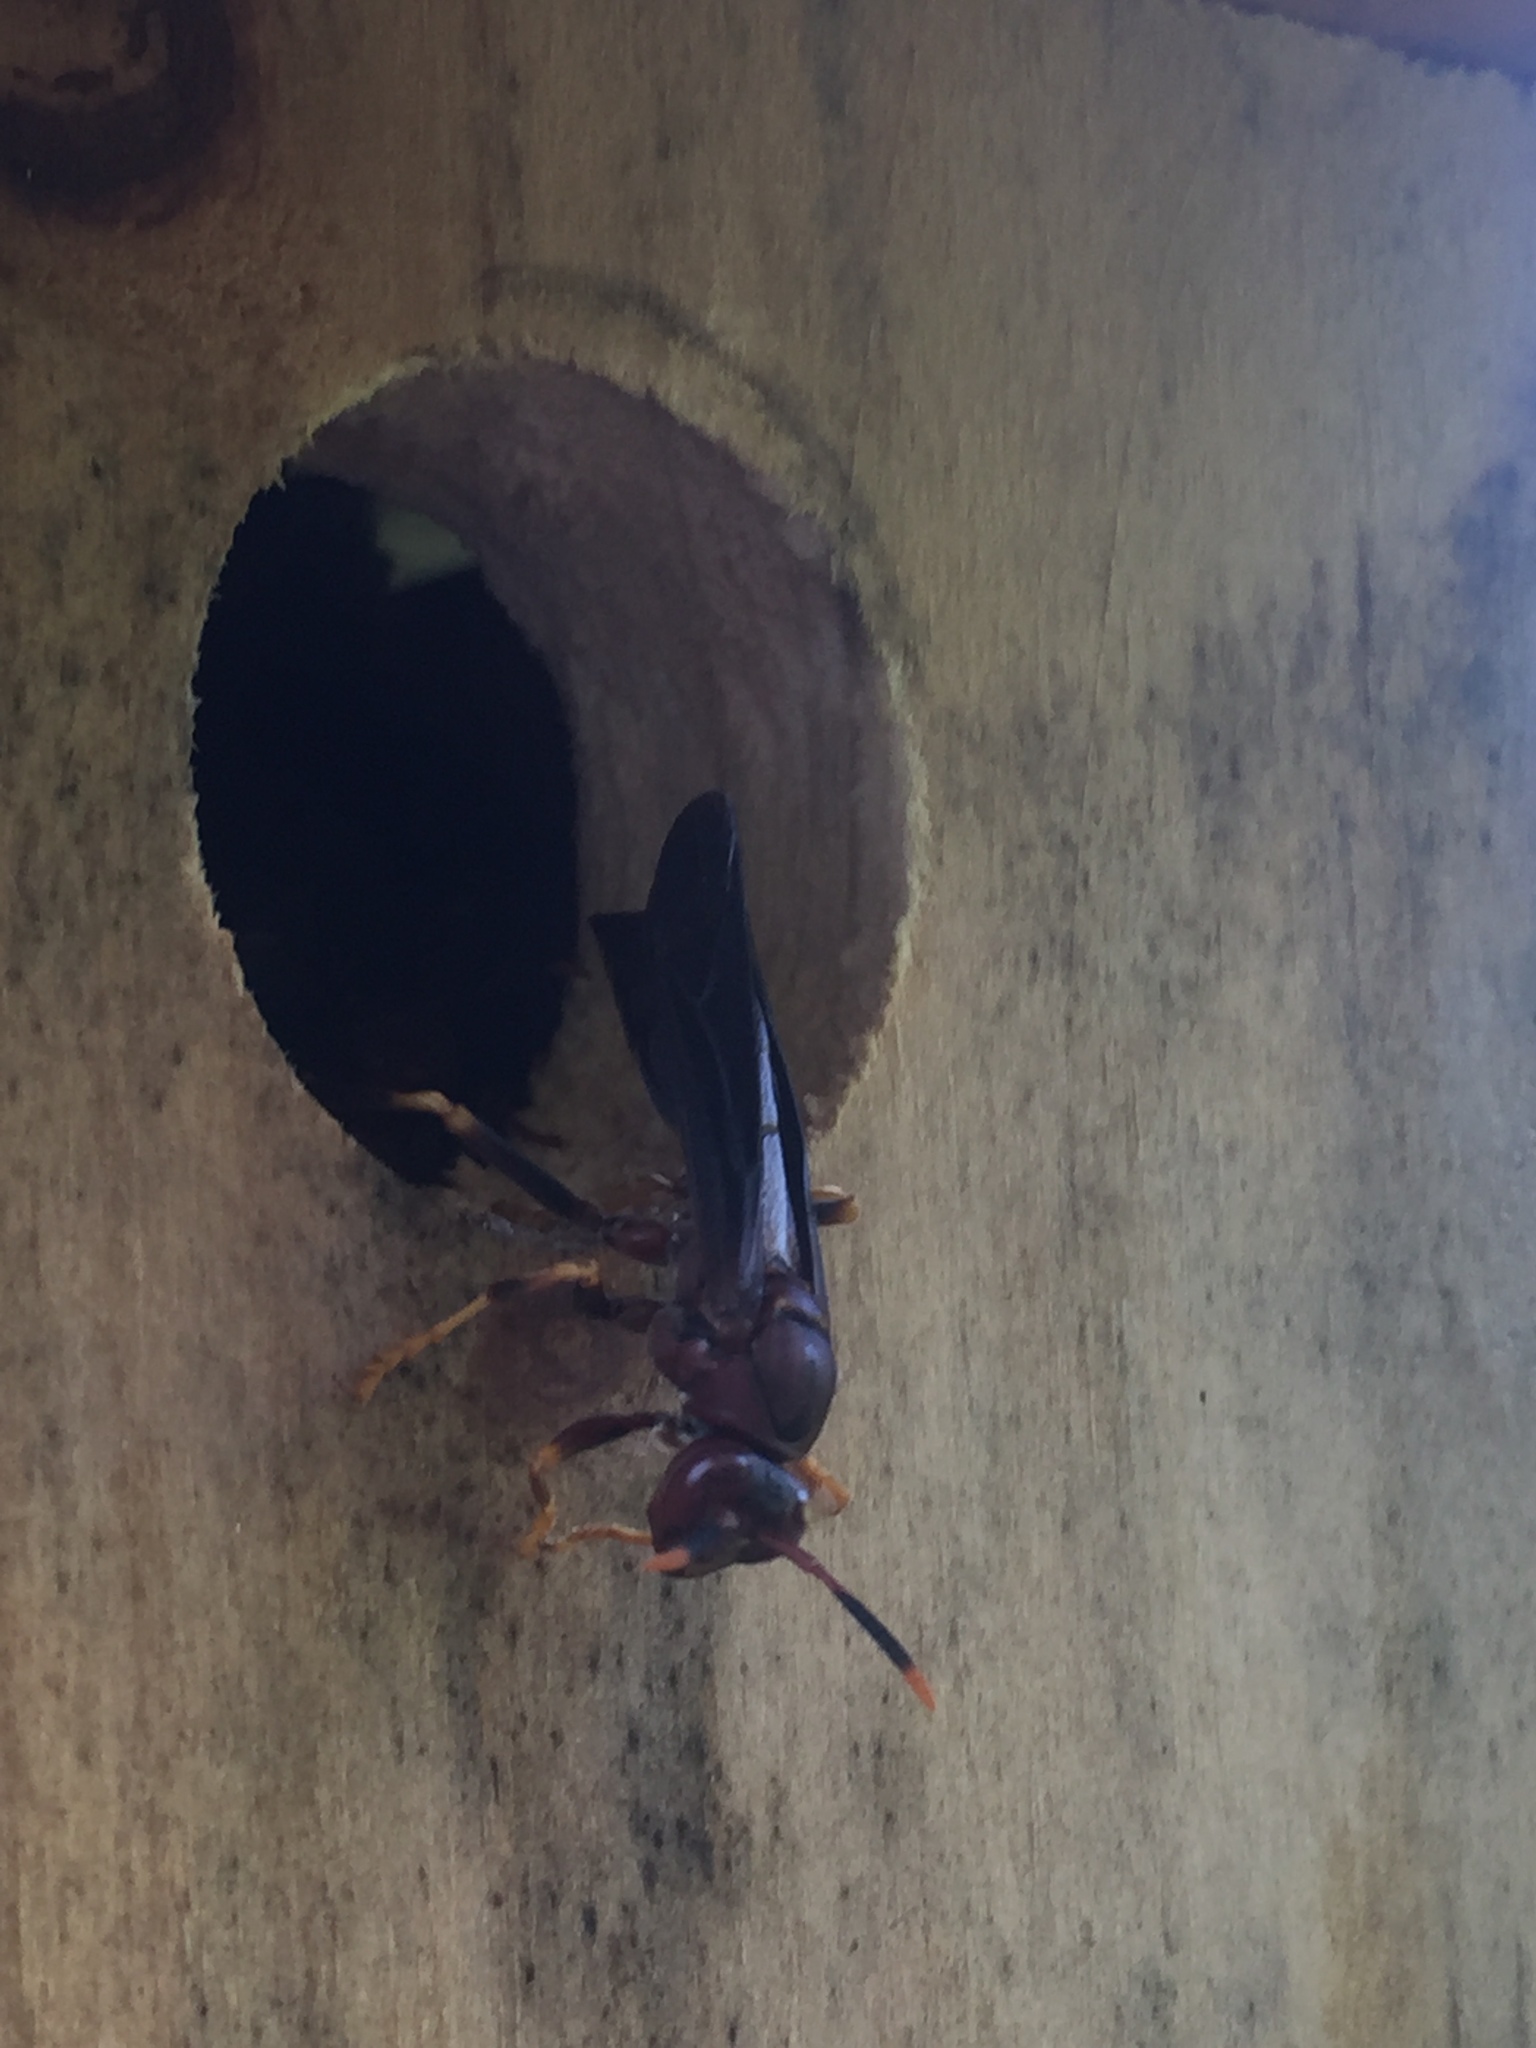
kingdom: Animalia
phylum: Arthropoda
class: Insecta
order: Hymenoptera
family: Eumenidae
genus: Polistes
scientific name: Polistes annularis
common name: Ringed paper wasp
